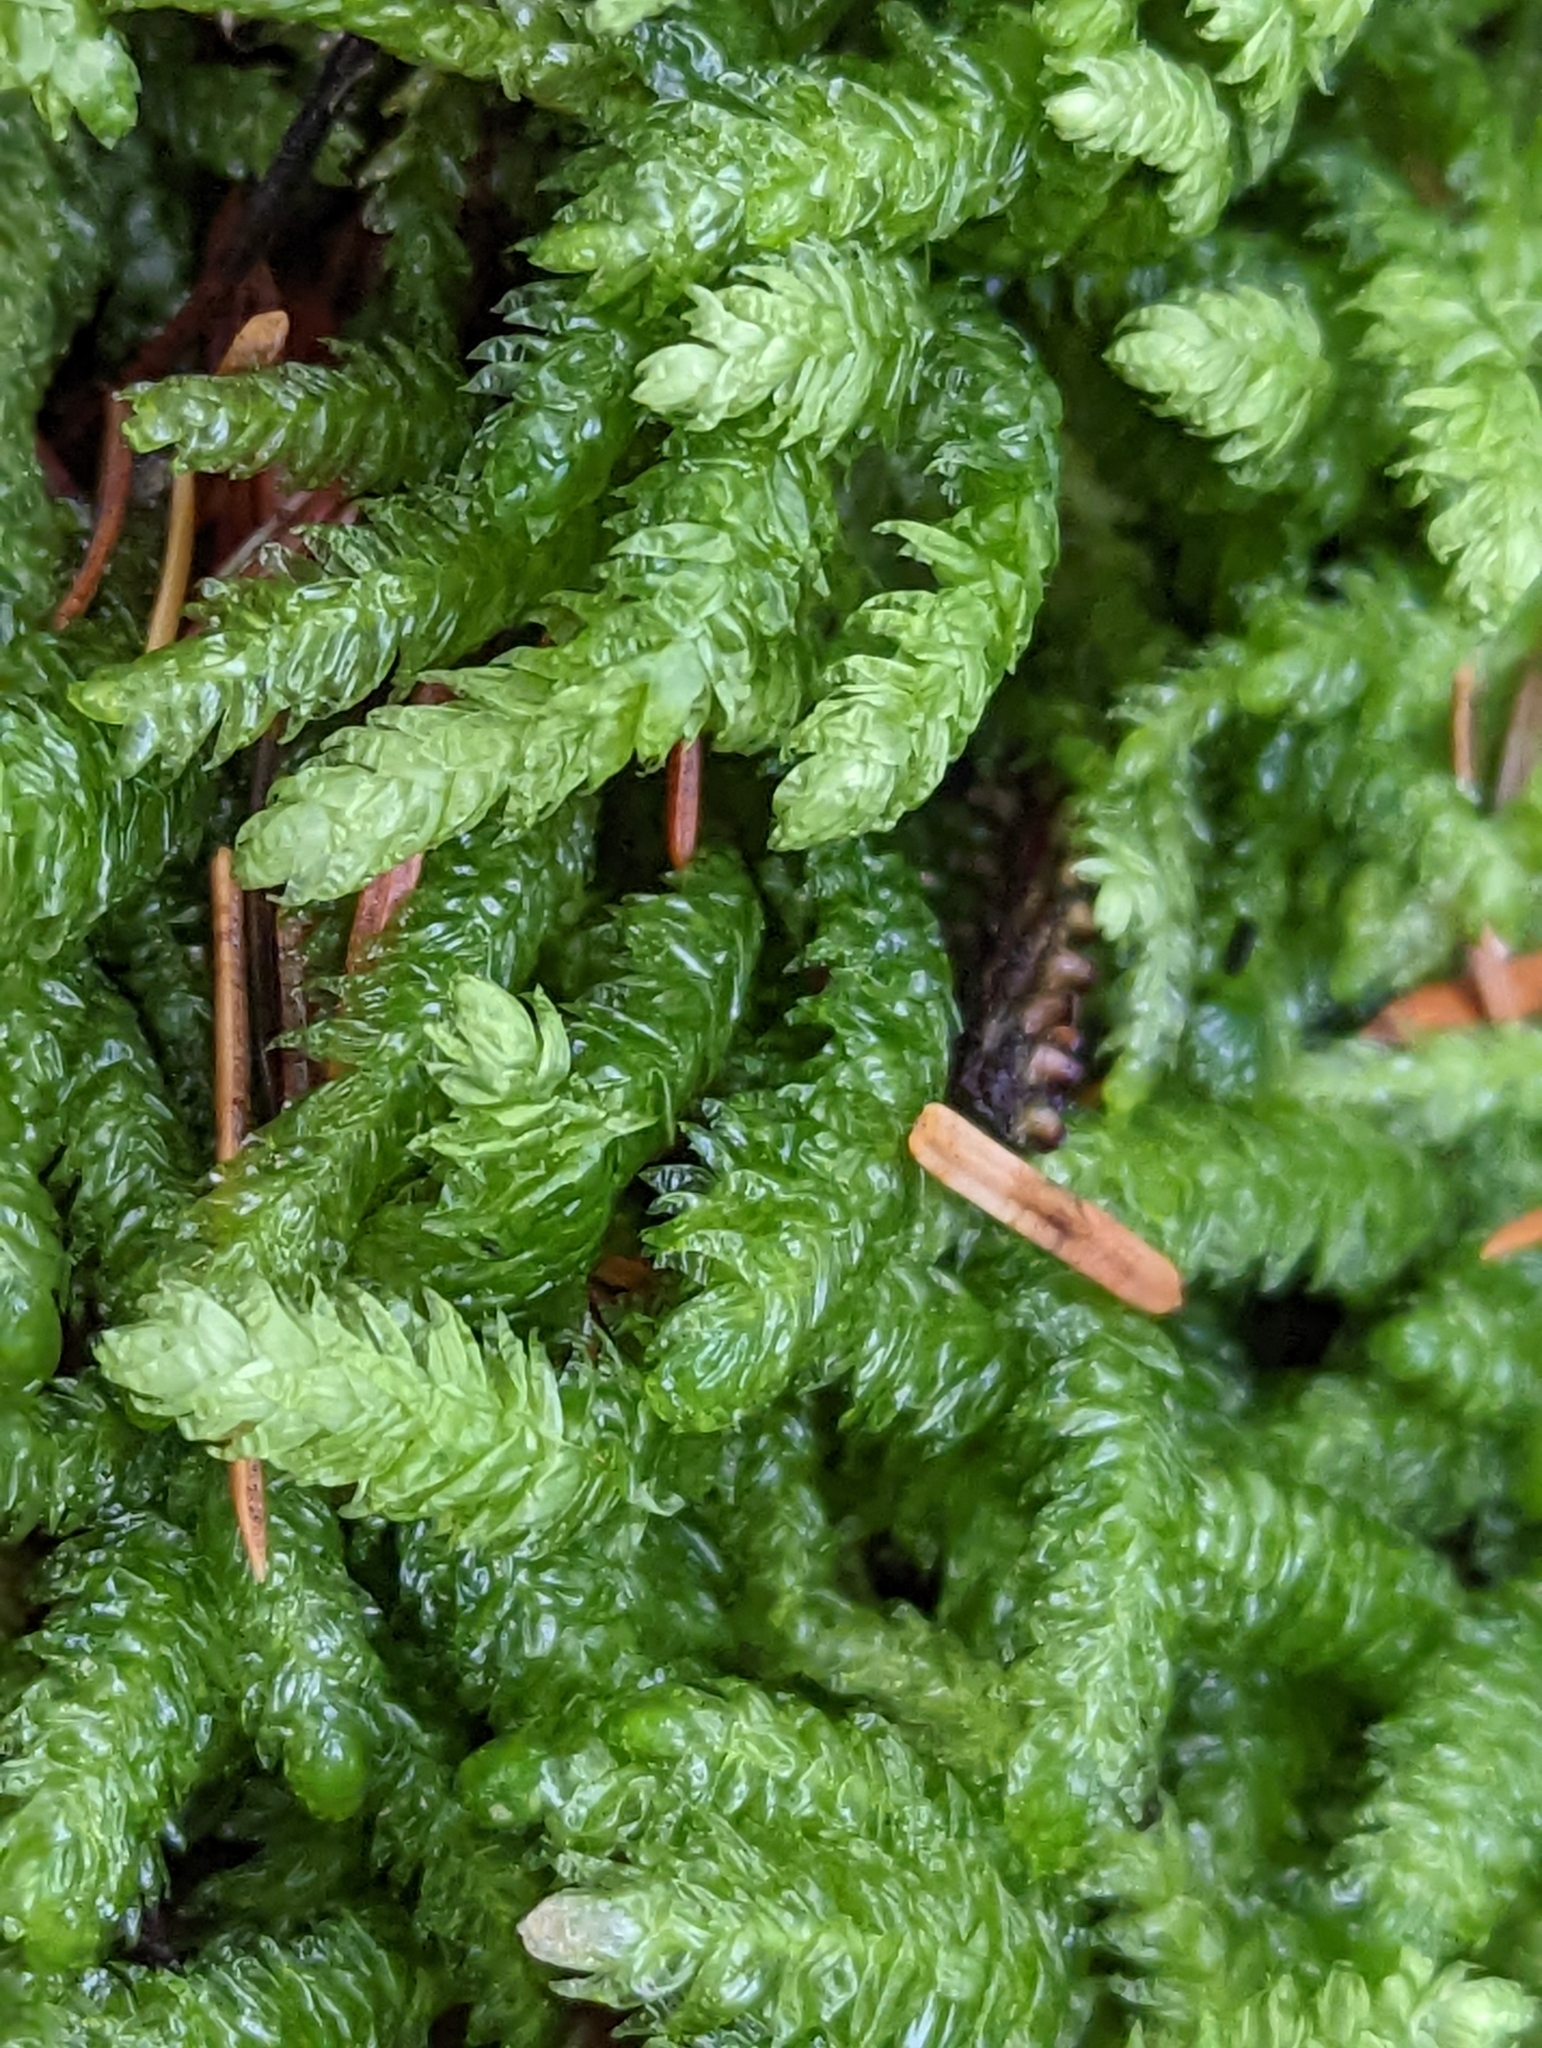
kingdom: Plantae
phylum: Bryophyta
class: Bryopsida
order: Hypnales
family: Plagiotheciaceae
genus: Plagiothecium
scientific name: Plagiothecium undulatum
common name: Waved silk-moss
